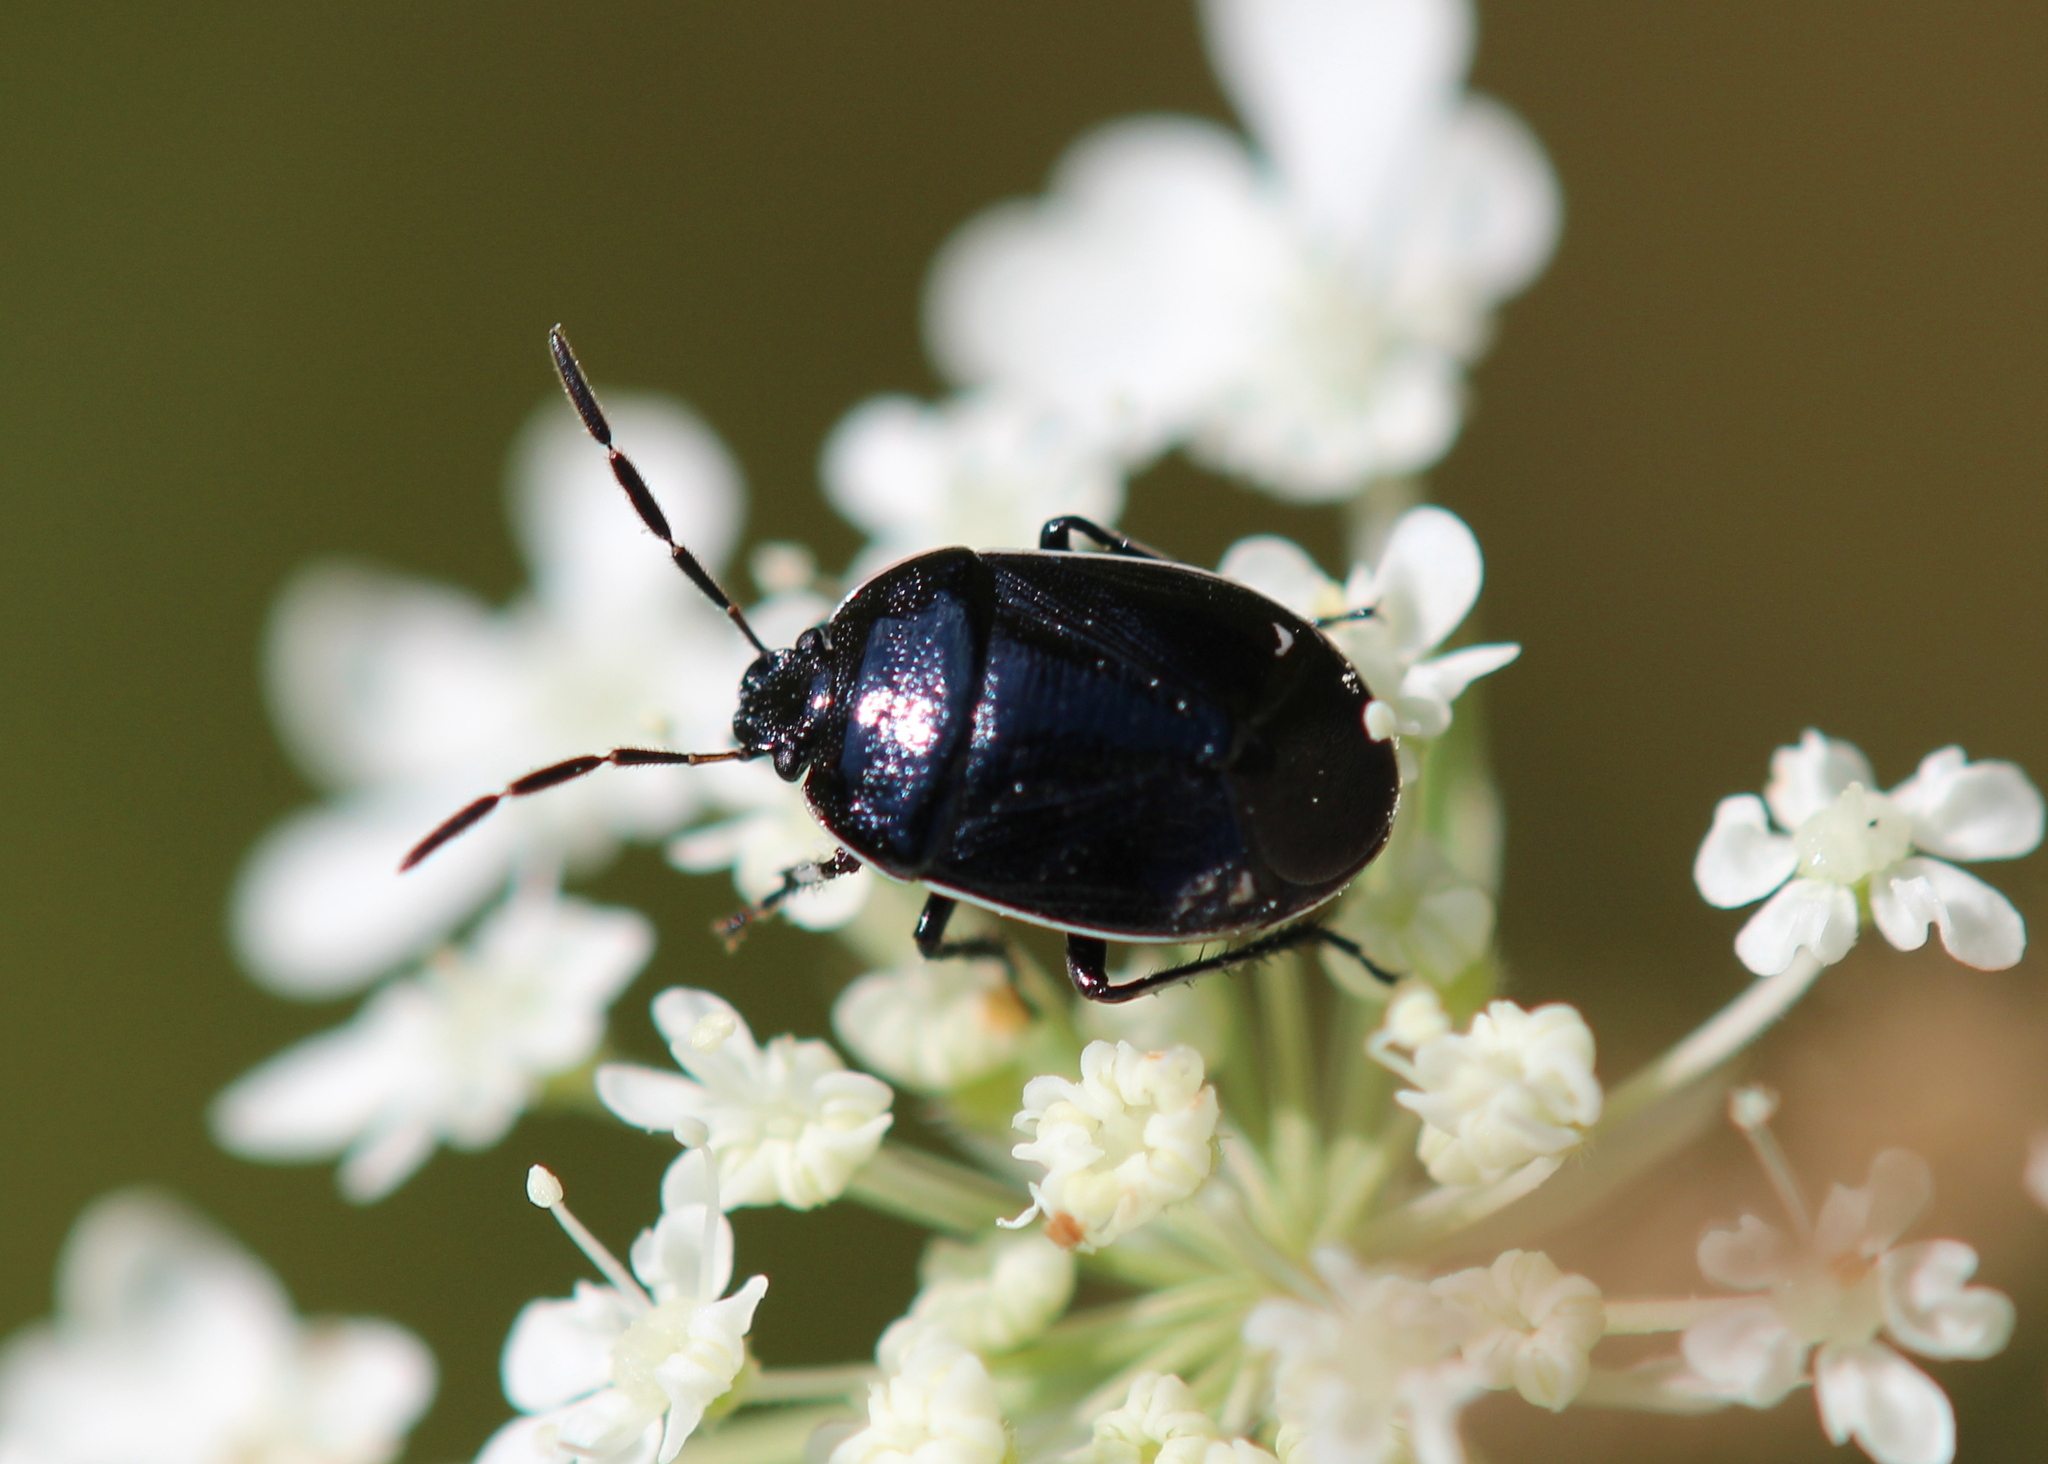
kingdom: Animalia
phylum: Arthropoda
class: Insecta
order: Hemiptera
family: Cydnidae
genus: Sehirus
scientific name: Sehirus cinctus
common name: White-margined burrower bug
